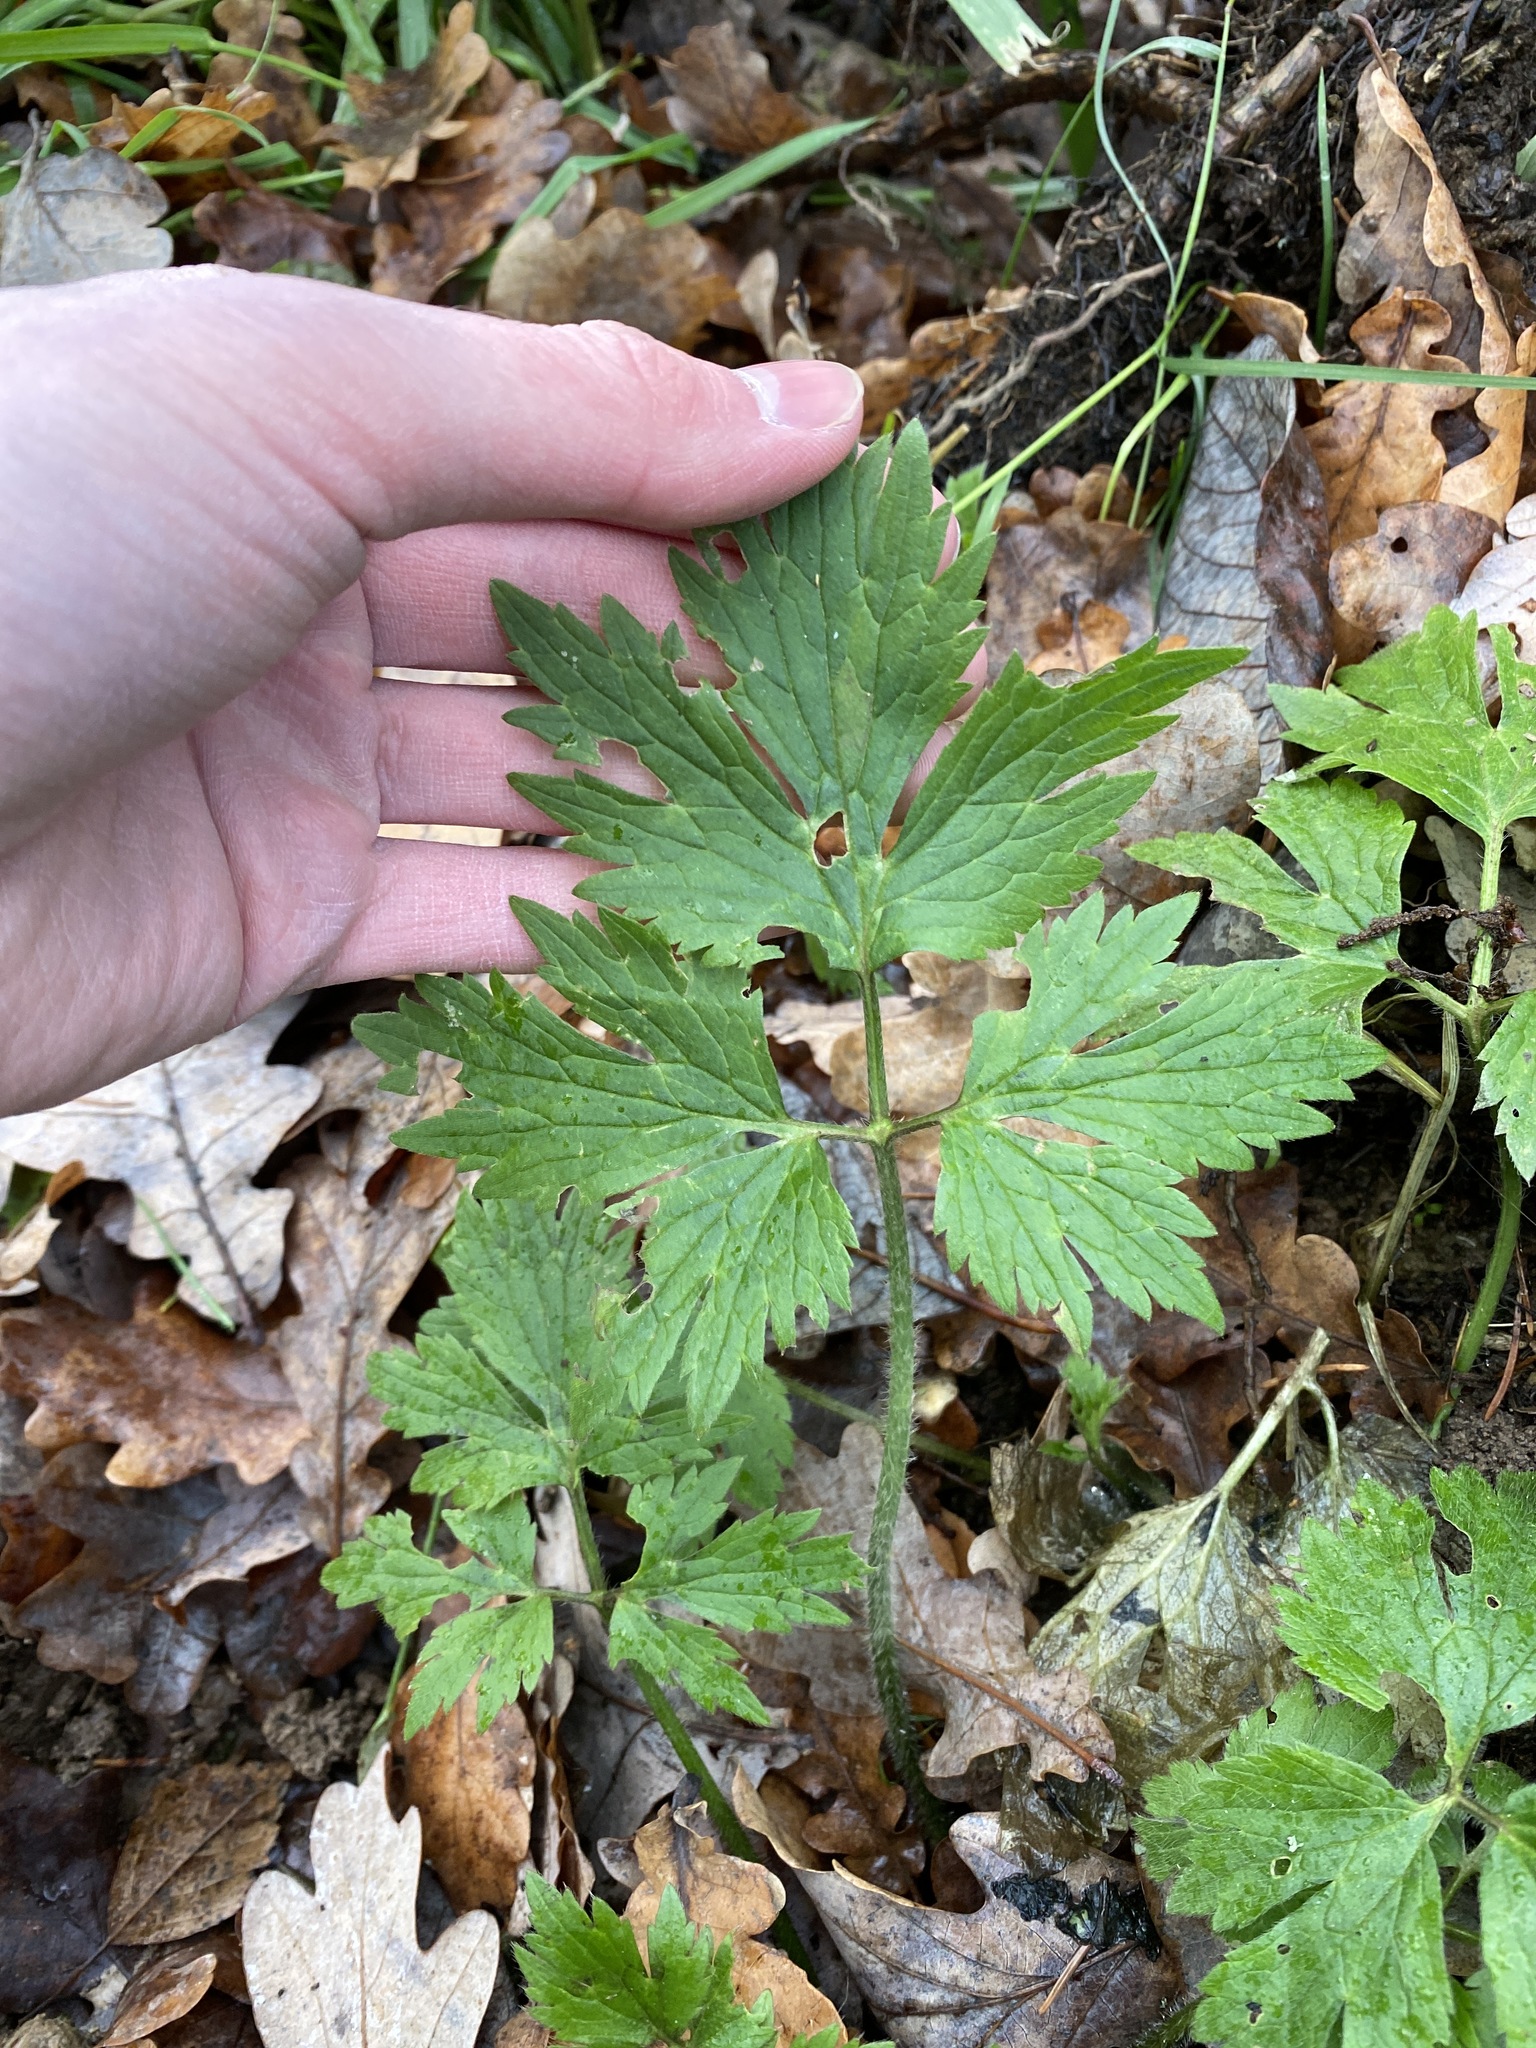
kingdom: Plantae
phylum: Tracheophyta
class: Magnoliopsida
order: Ranunculales
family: Ranunculaceae
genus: Ranunculus
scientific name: Ranunculus repens
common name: Creeping buttercup
